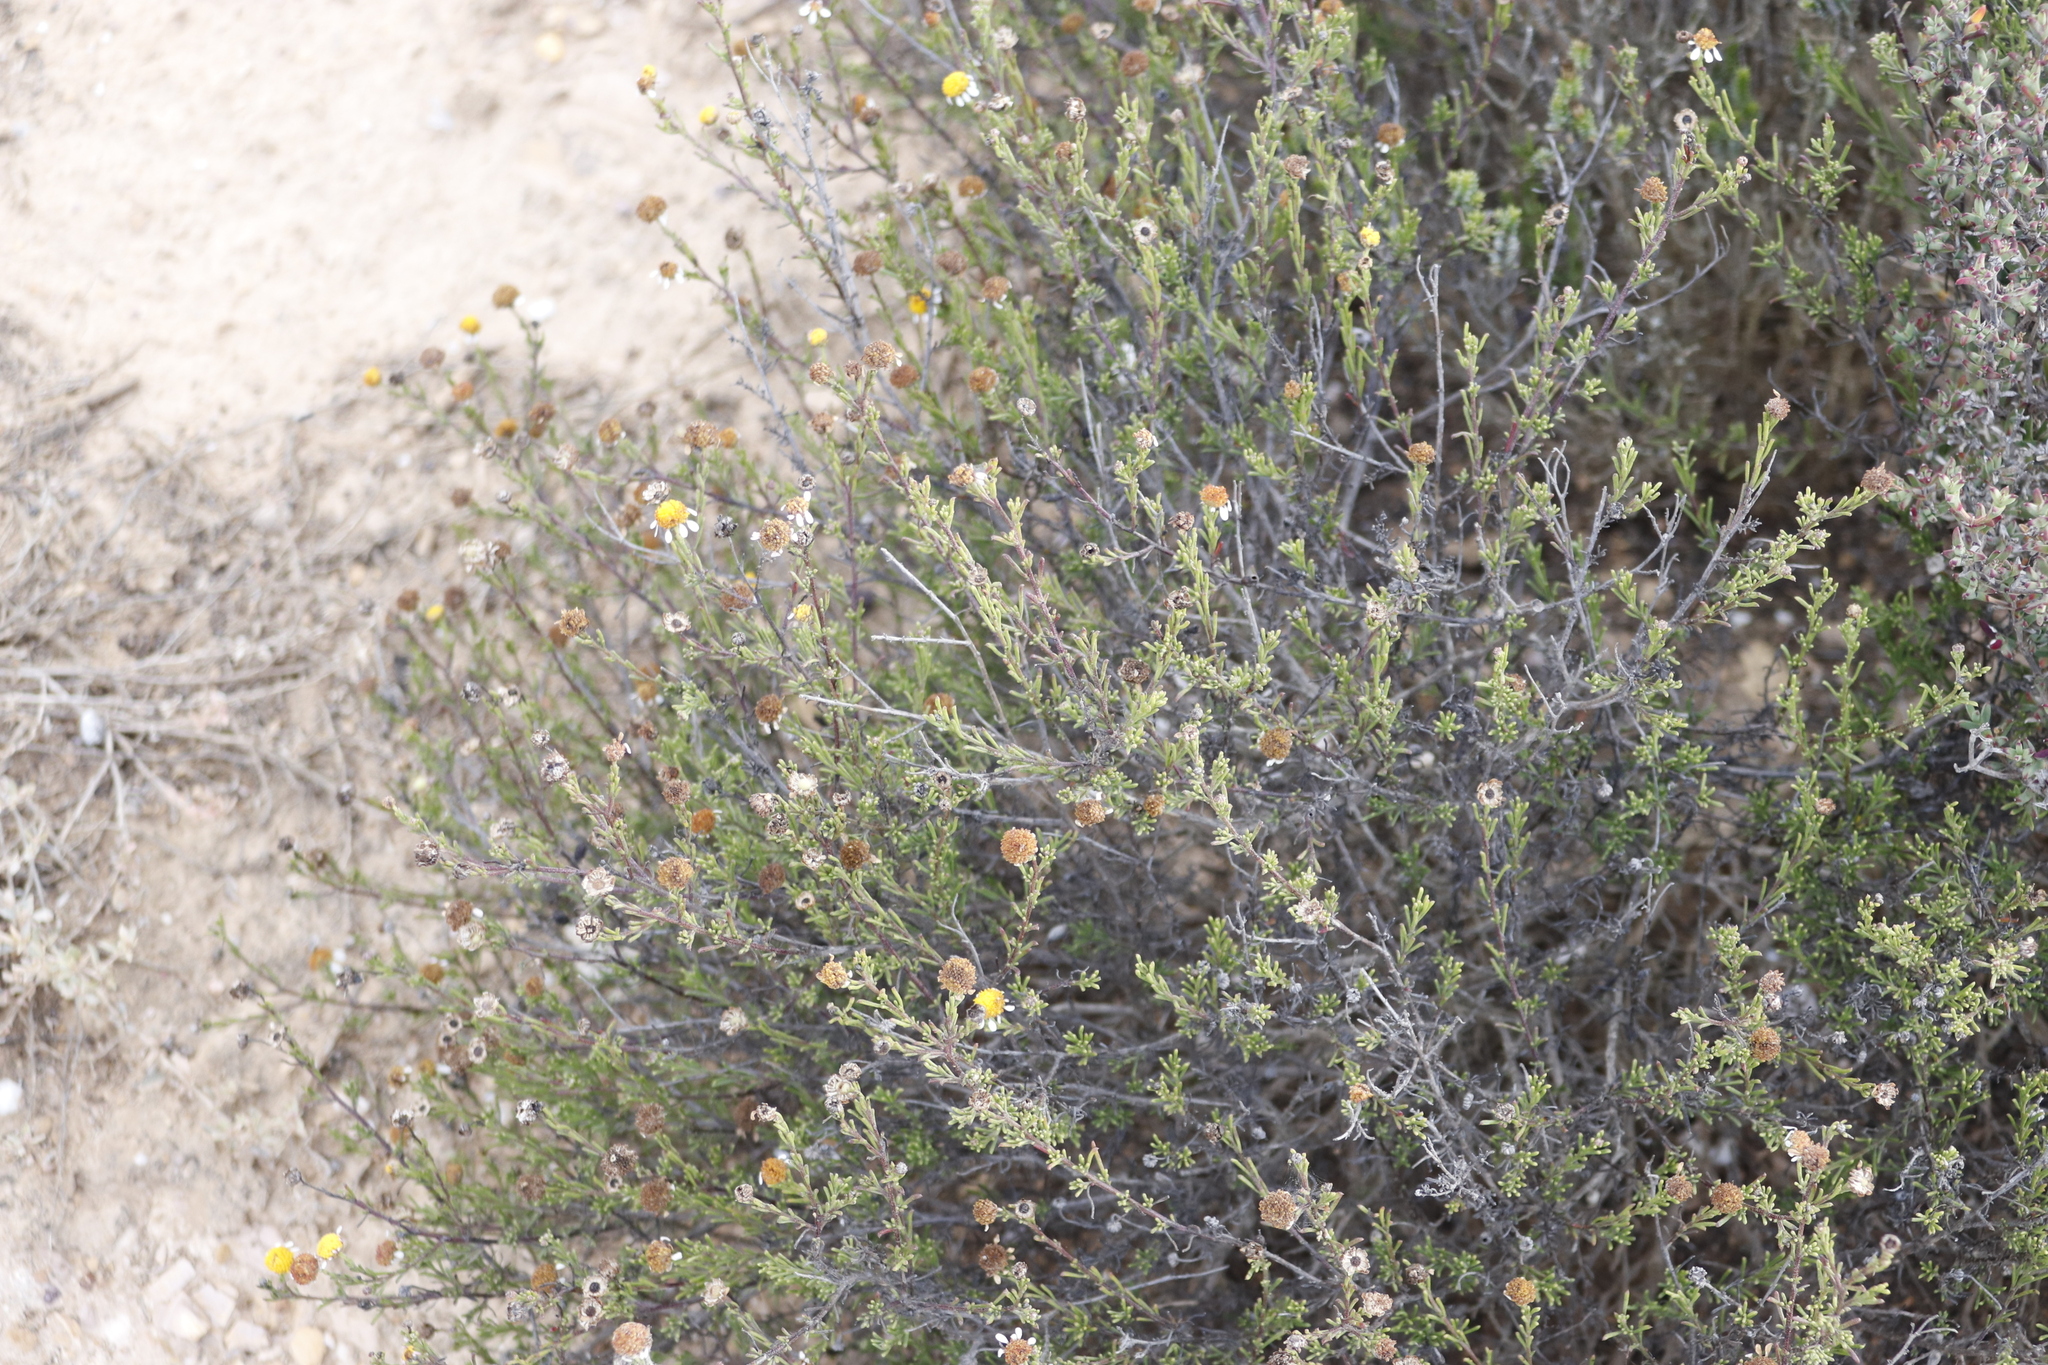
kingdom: Plantae
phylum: Tracheophyta
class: Magnoliopsida
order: Asterales
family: Asteraceae
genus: Cymbopappus
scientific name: Cymbopappus adenosolen
